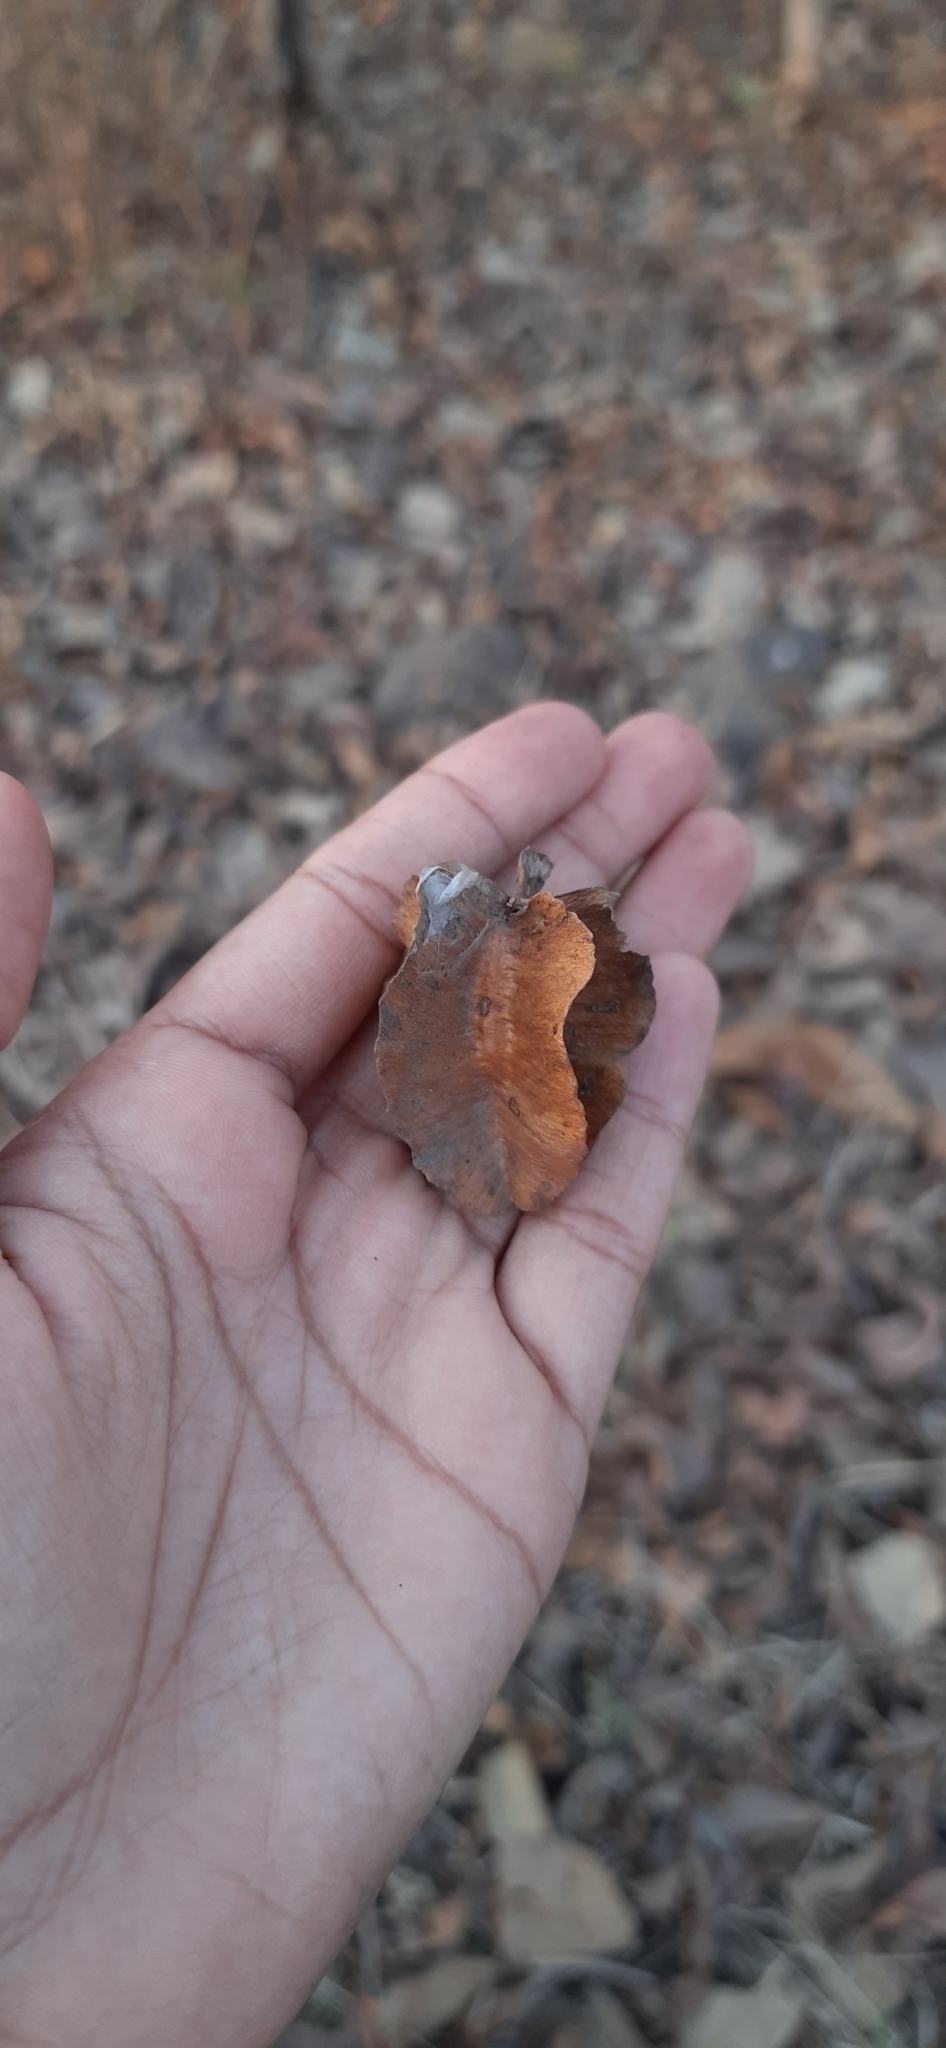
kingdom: Plantae
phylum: Tracheophyta
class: Magnoliopsida
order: Myrtales
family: Combretaceae
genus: Terminalia
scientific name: Terminalia elliptica
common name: Indian-laurel
